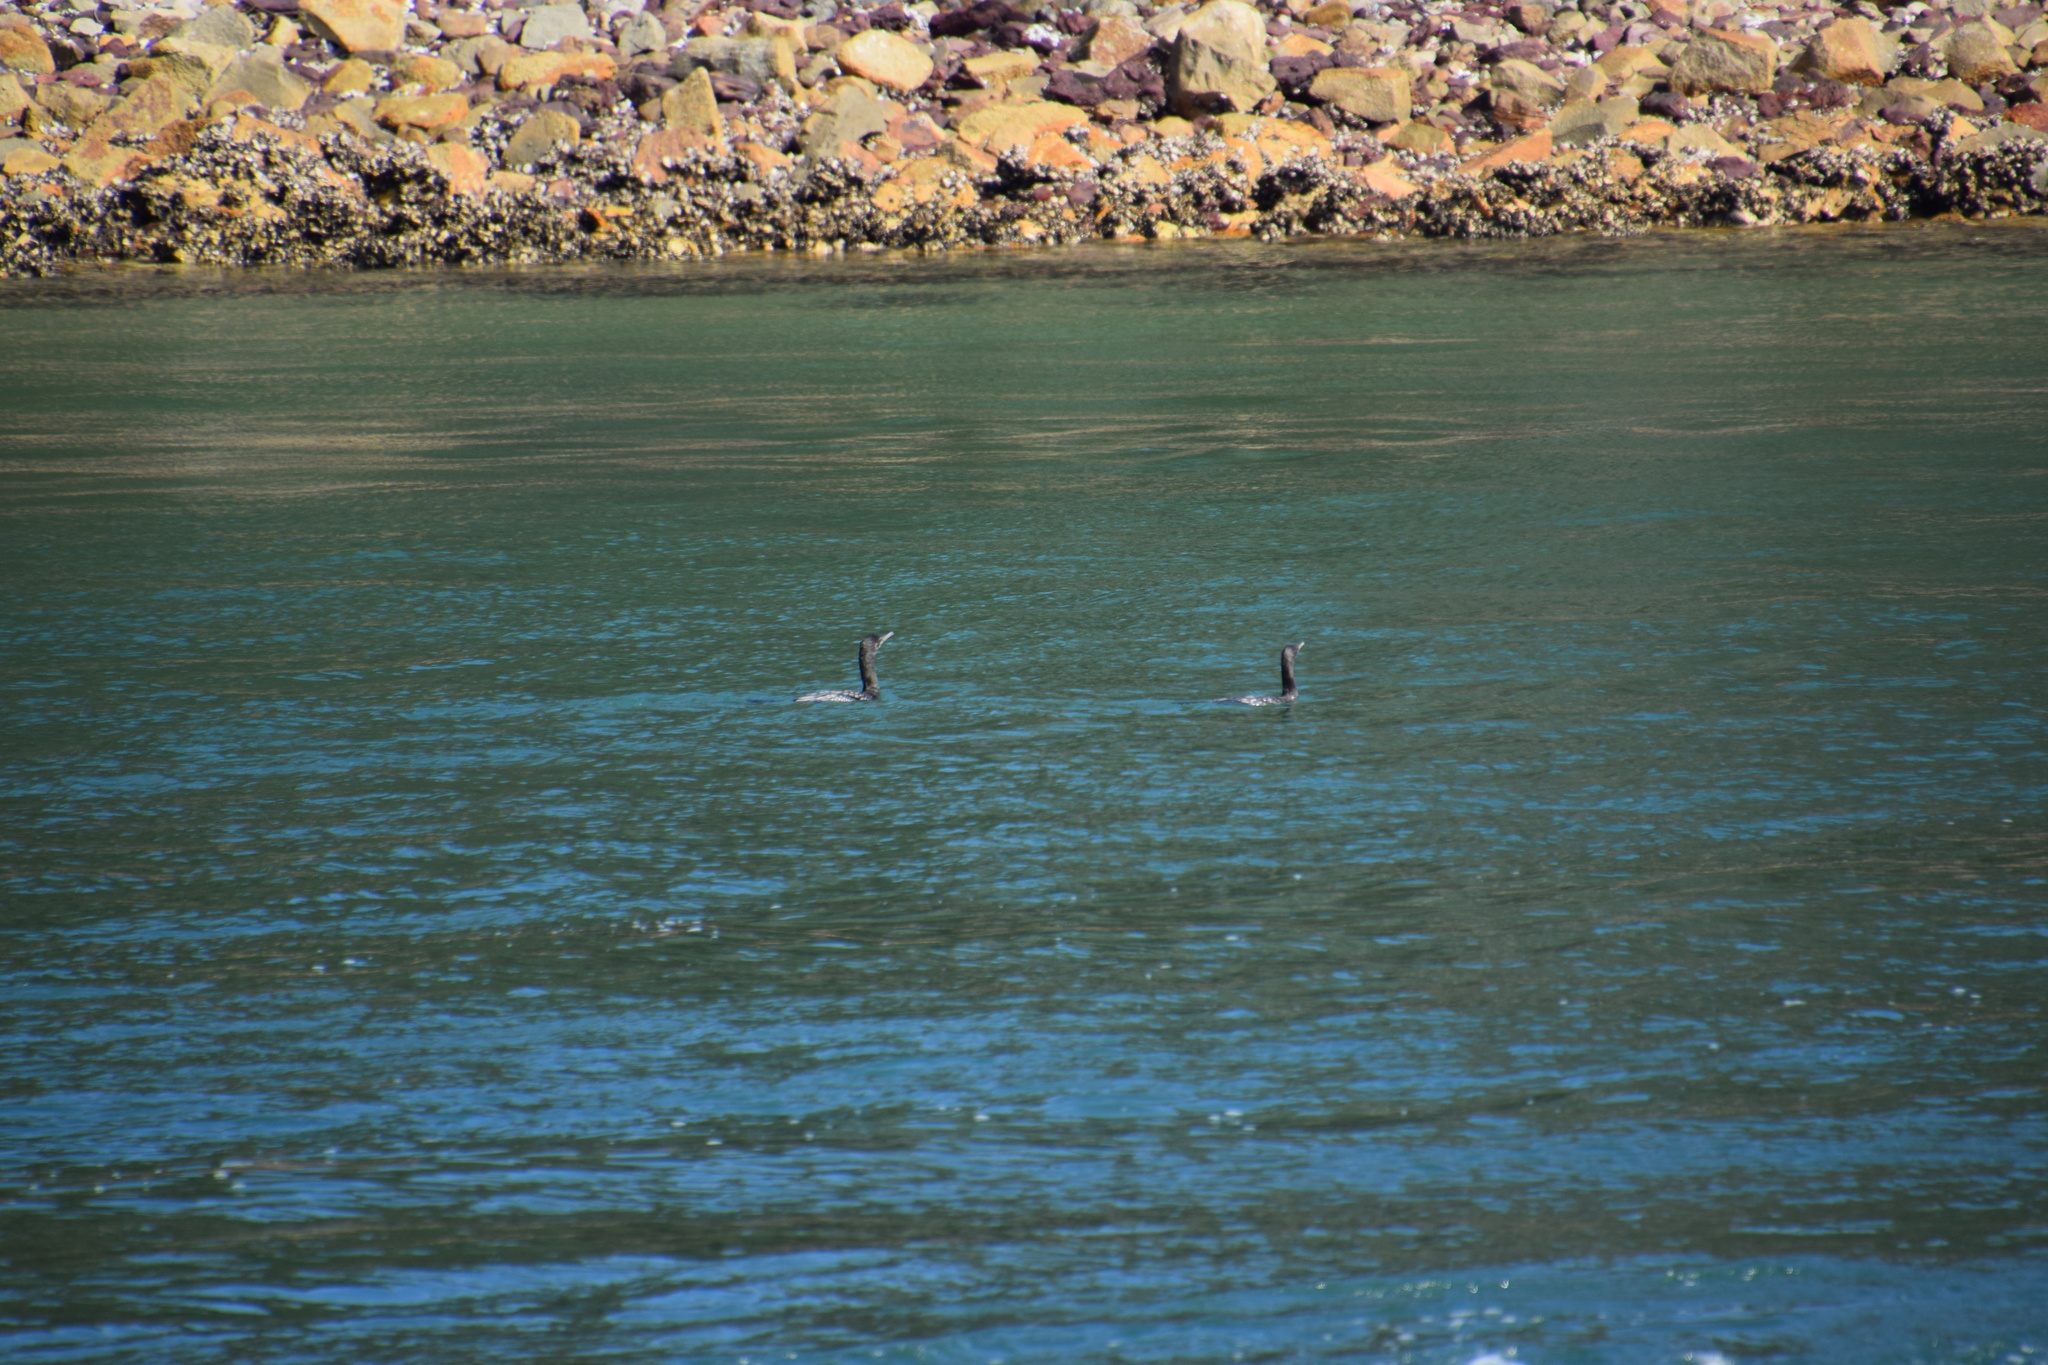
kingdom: Animalia
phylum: Chordata
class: Aves
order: Suliformes
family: Phalacrocoracidae
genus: Phalacrocorax
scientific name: Phalacrocorax sulcirostris
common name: Little black cormorant
